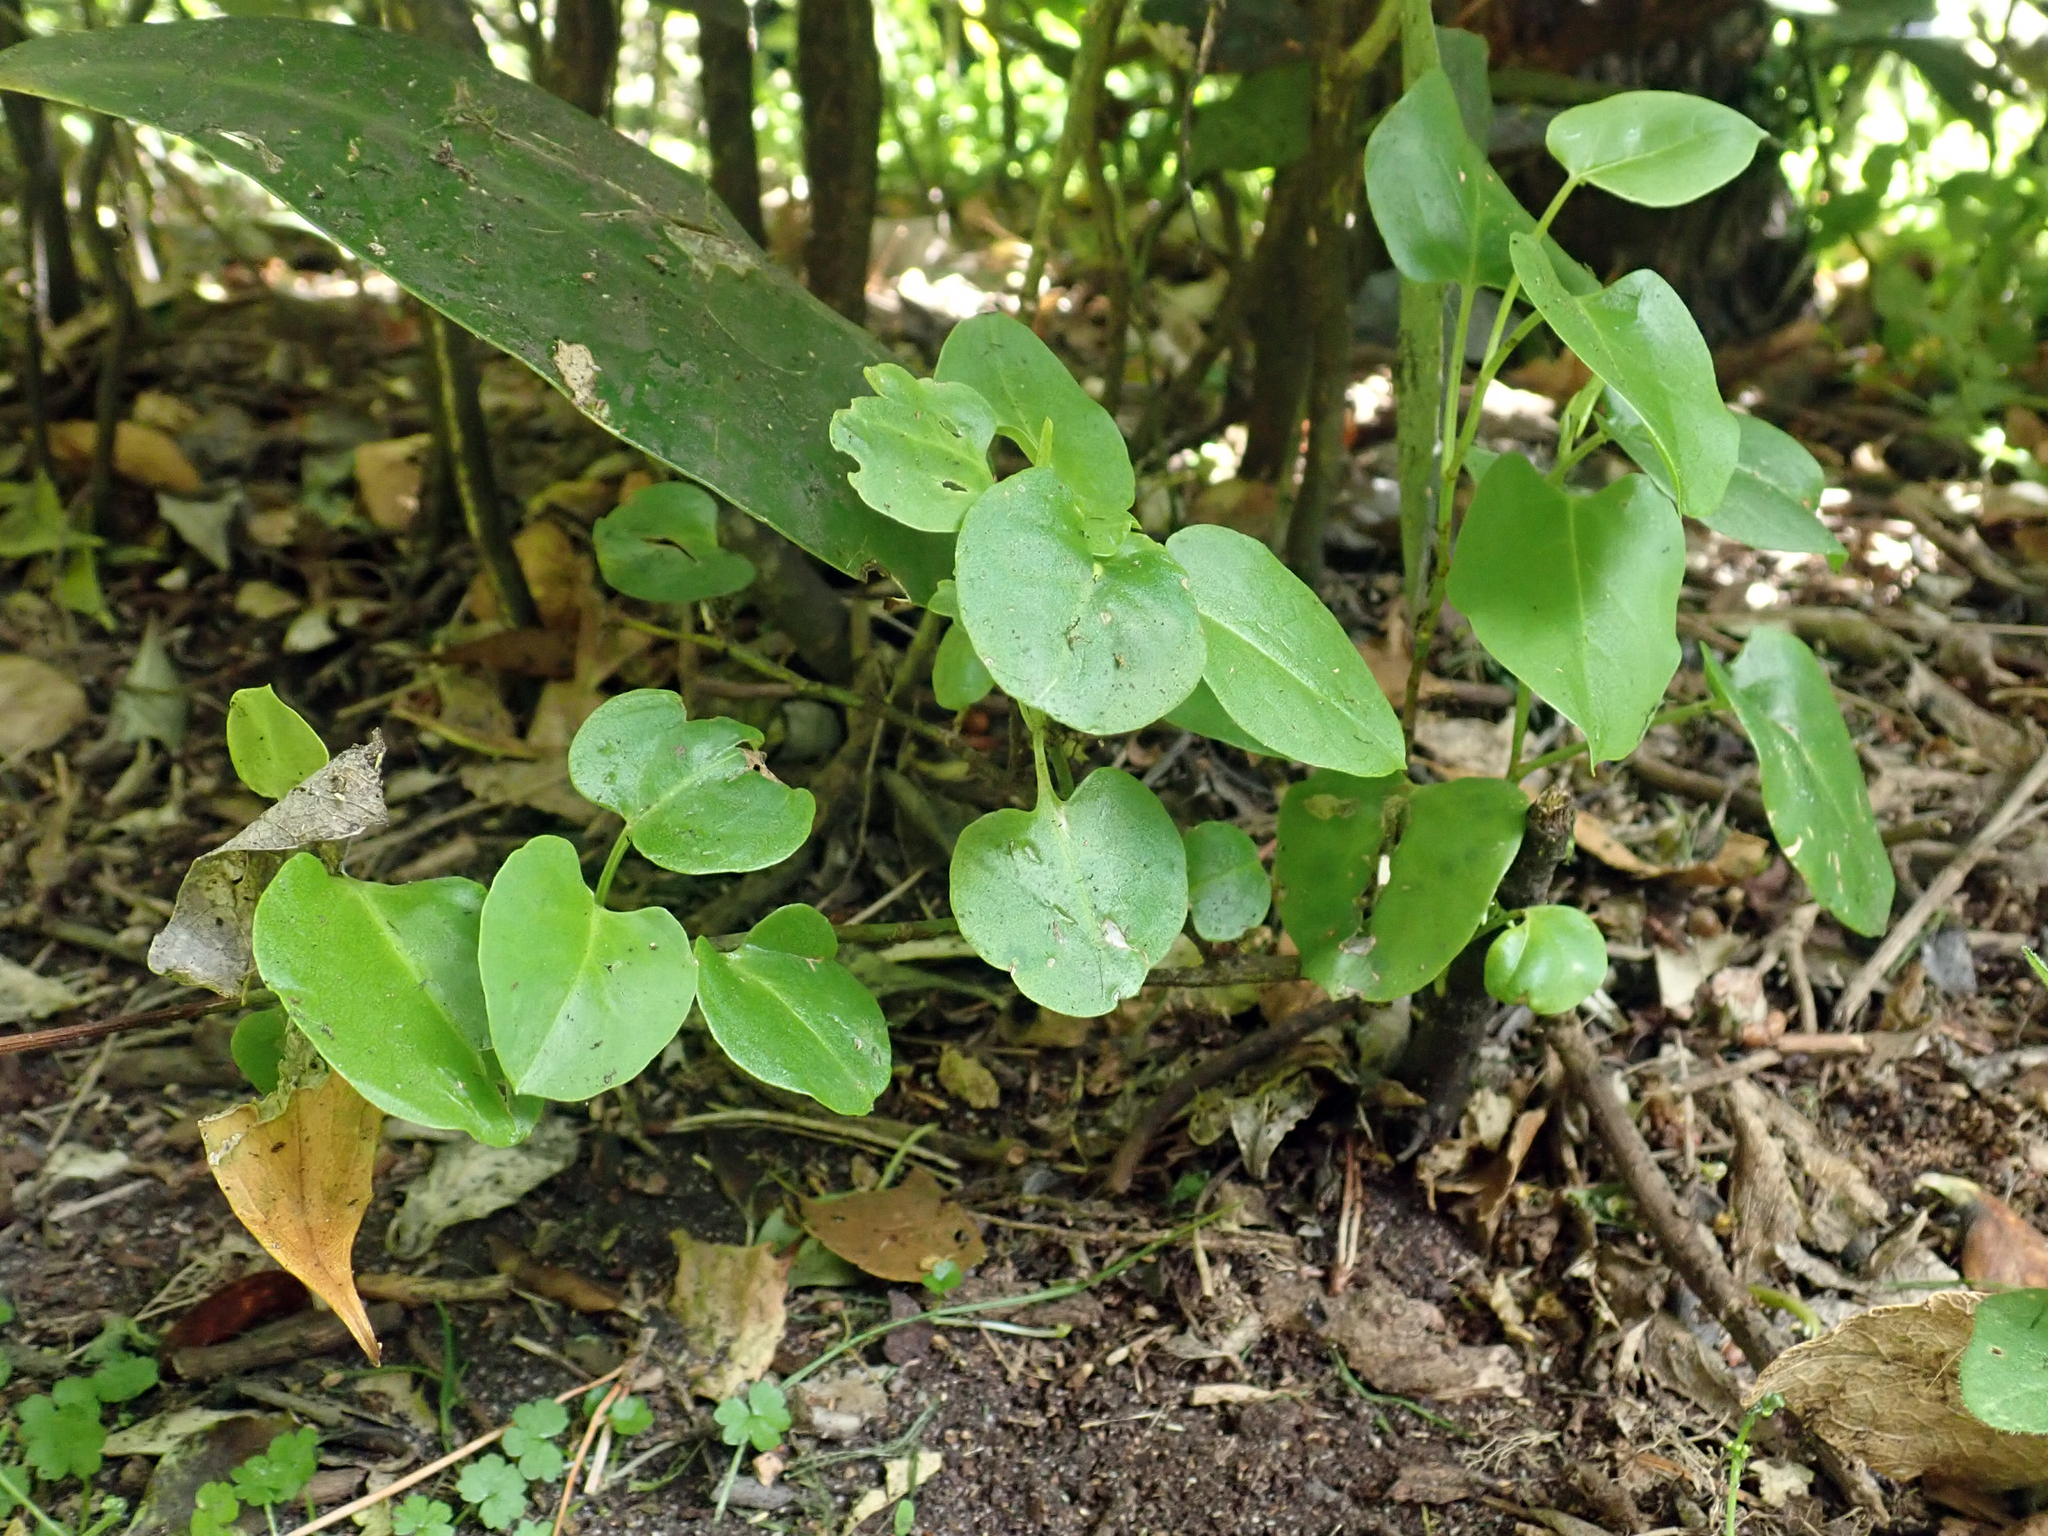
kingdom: Plantae
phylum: Tracheophyta
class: Magnoliopsida
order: Caryophyllales
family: Polygonaceae
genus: Muehlenbeckia
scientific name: Muehlenbeckia australis
